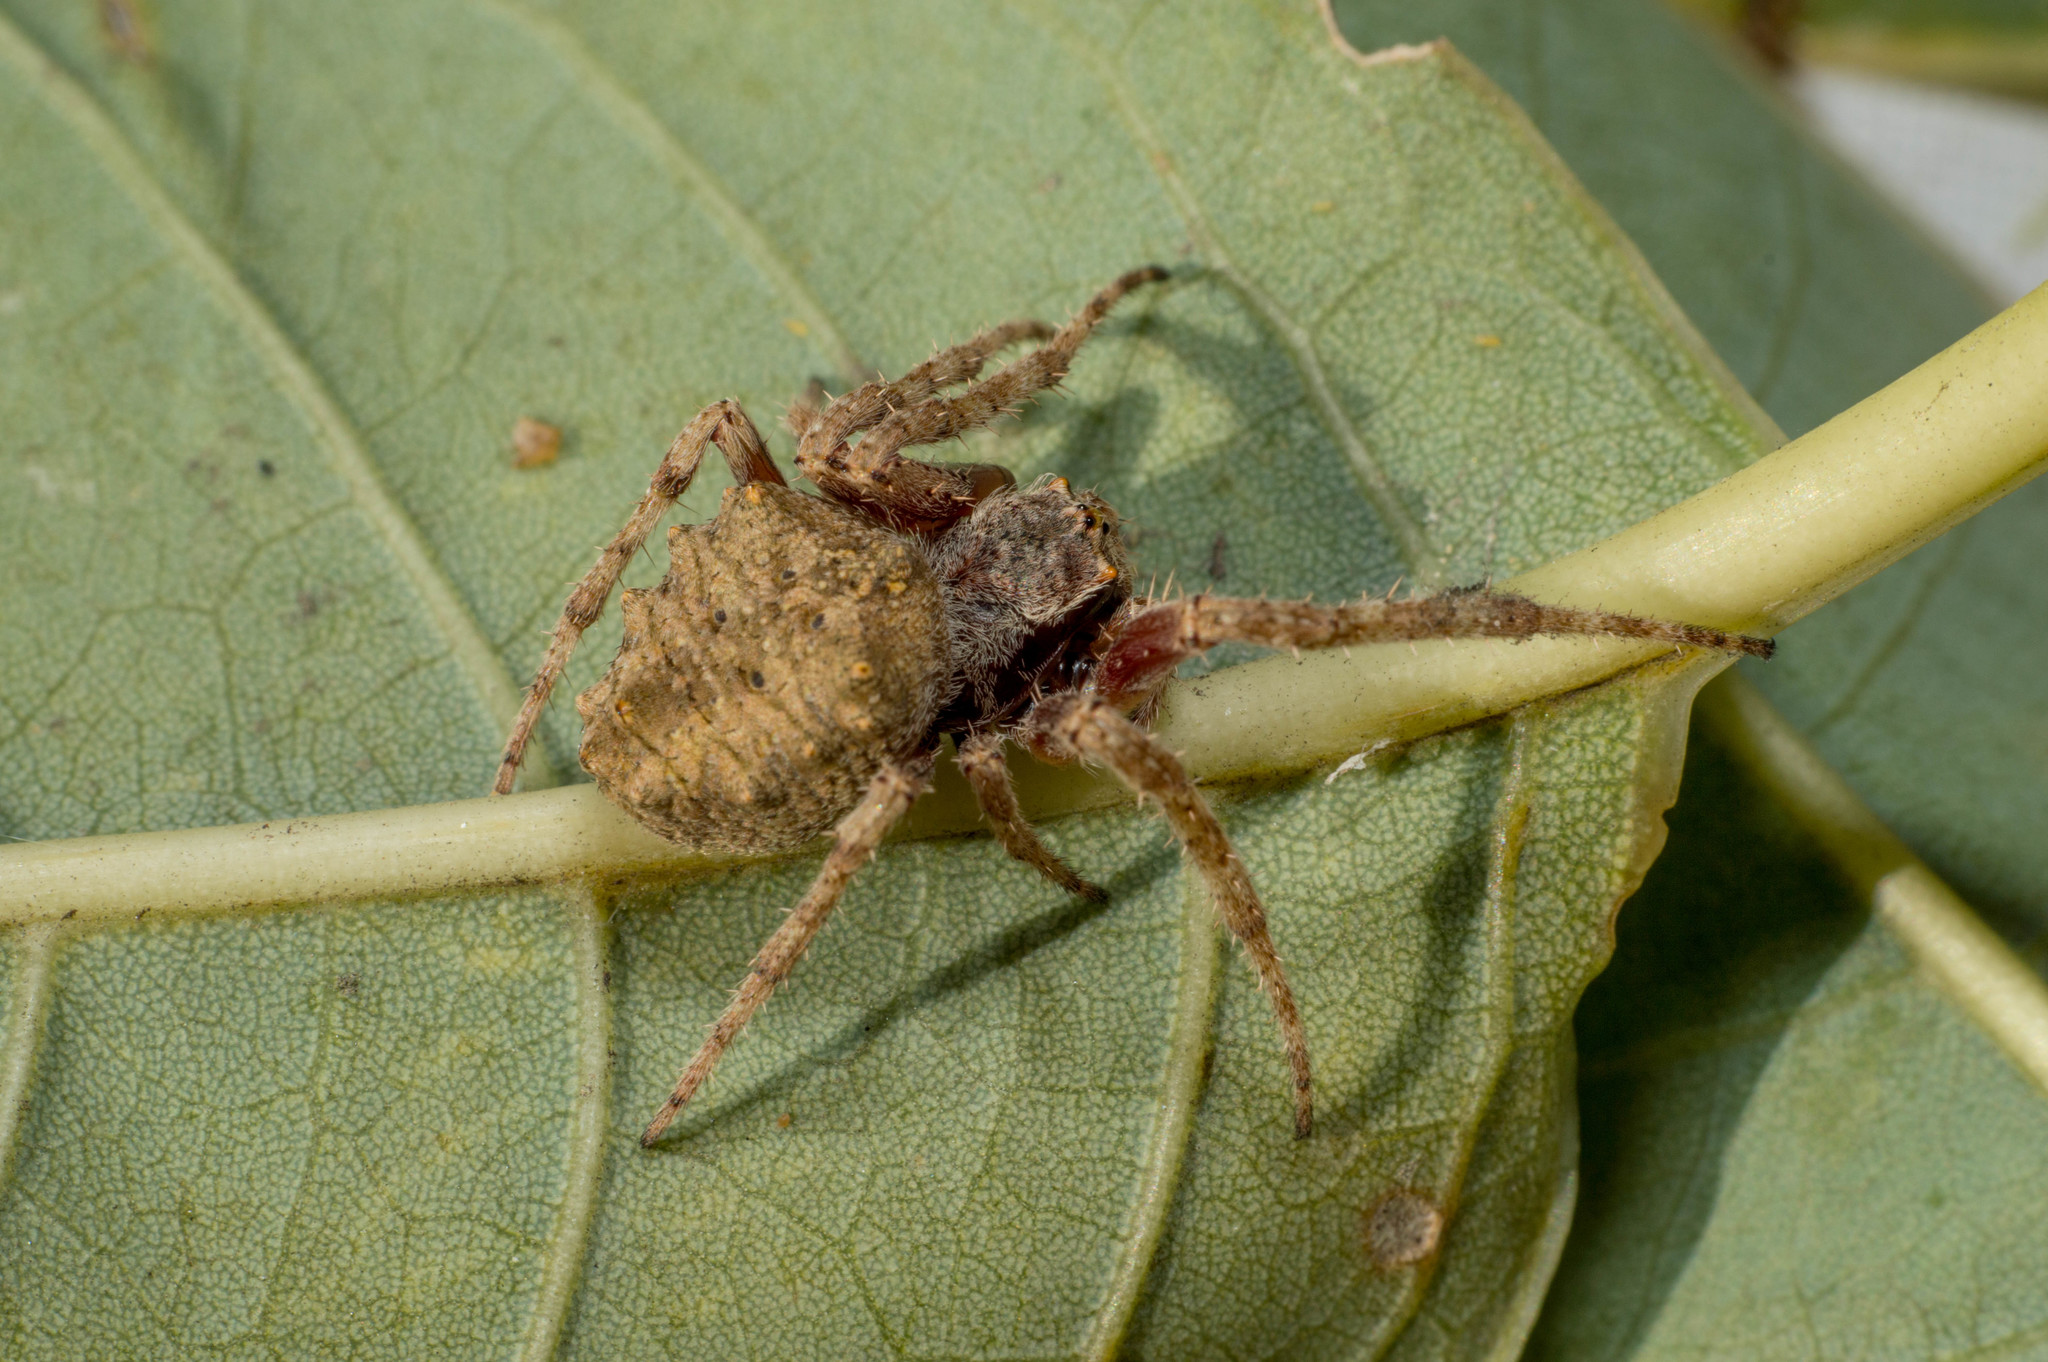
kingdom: Animalia
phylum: Arthropoda
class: Arachnida
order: Araneae
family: Araneidae
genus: Parawixia
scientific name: Parawixia audax
